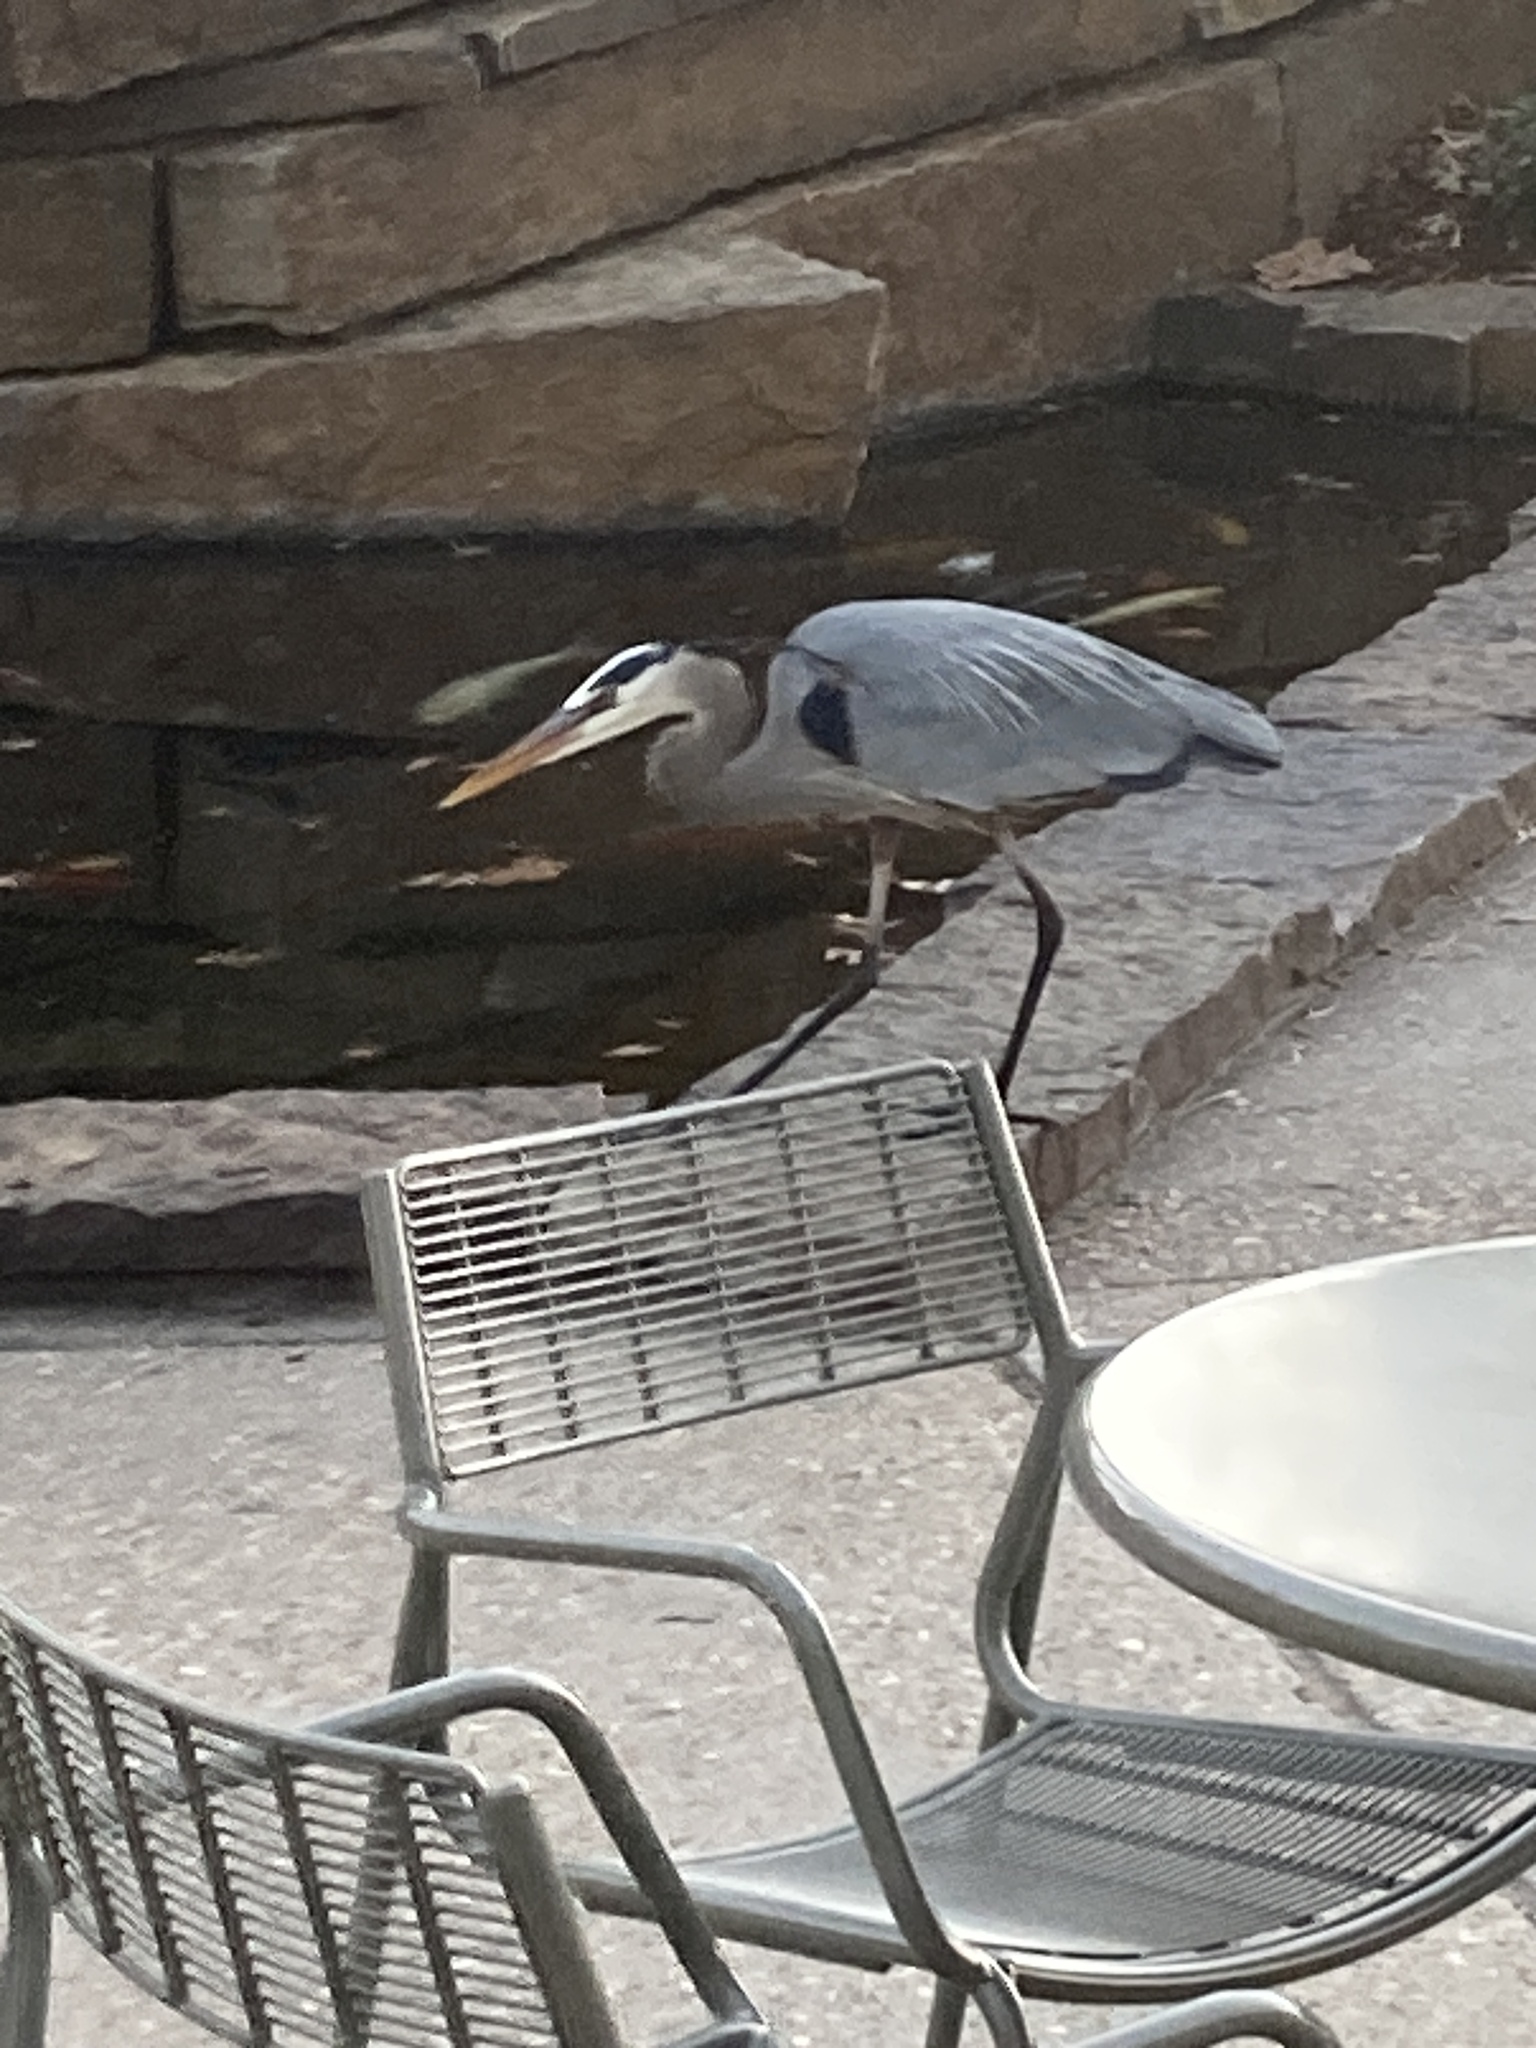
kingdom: Animalia
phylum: Chordata
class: Aves
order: Pelecaniformes
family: Ardeidae
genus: Ardea
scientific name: Ardea herodias
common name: Great blue heron
